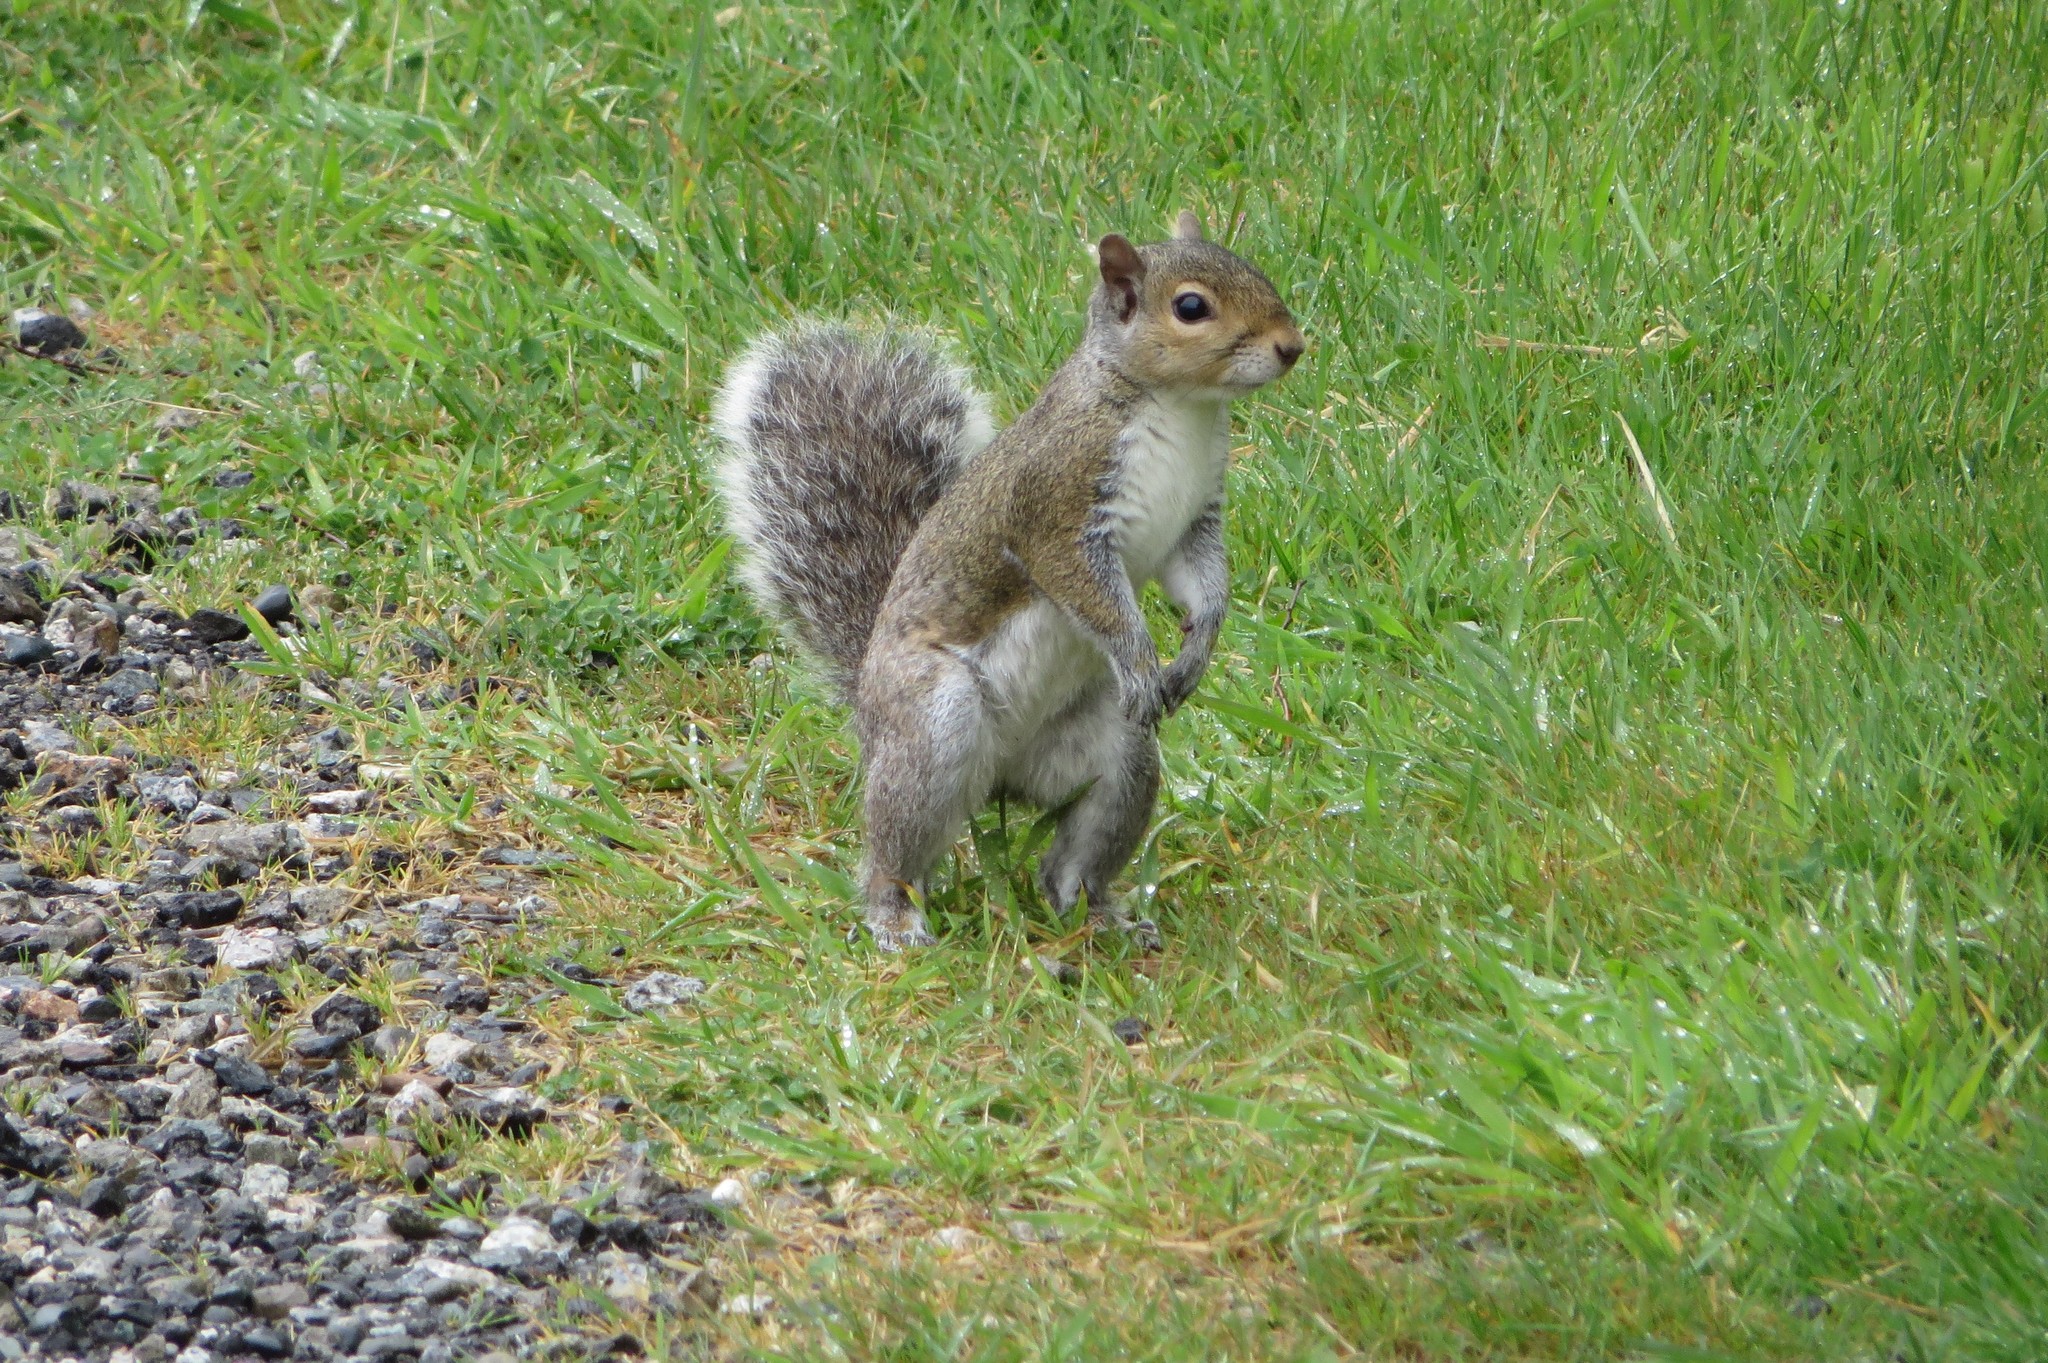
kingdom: Animalia
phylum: Chordata
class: Mammalia
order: Rodentia
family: Sciuridae
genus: Sciurus
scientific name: Sciurus carolinensis
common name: Eastern gray squirrel
